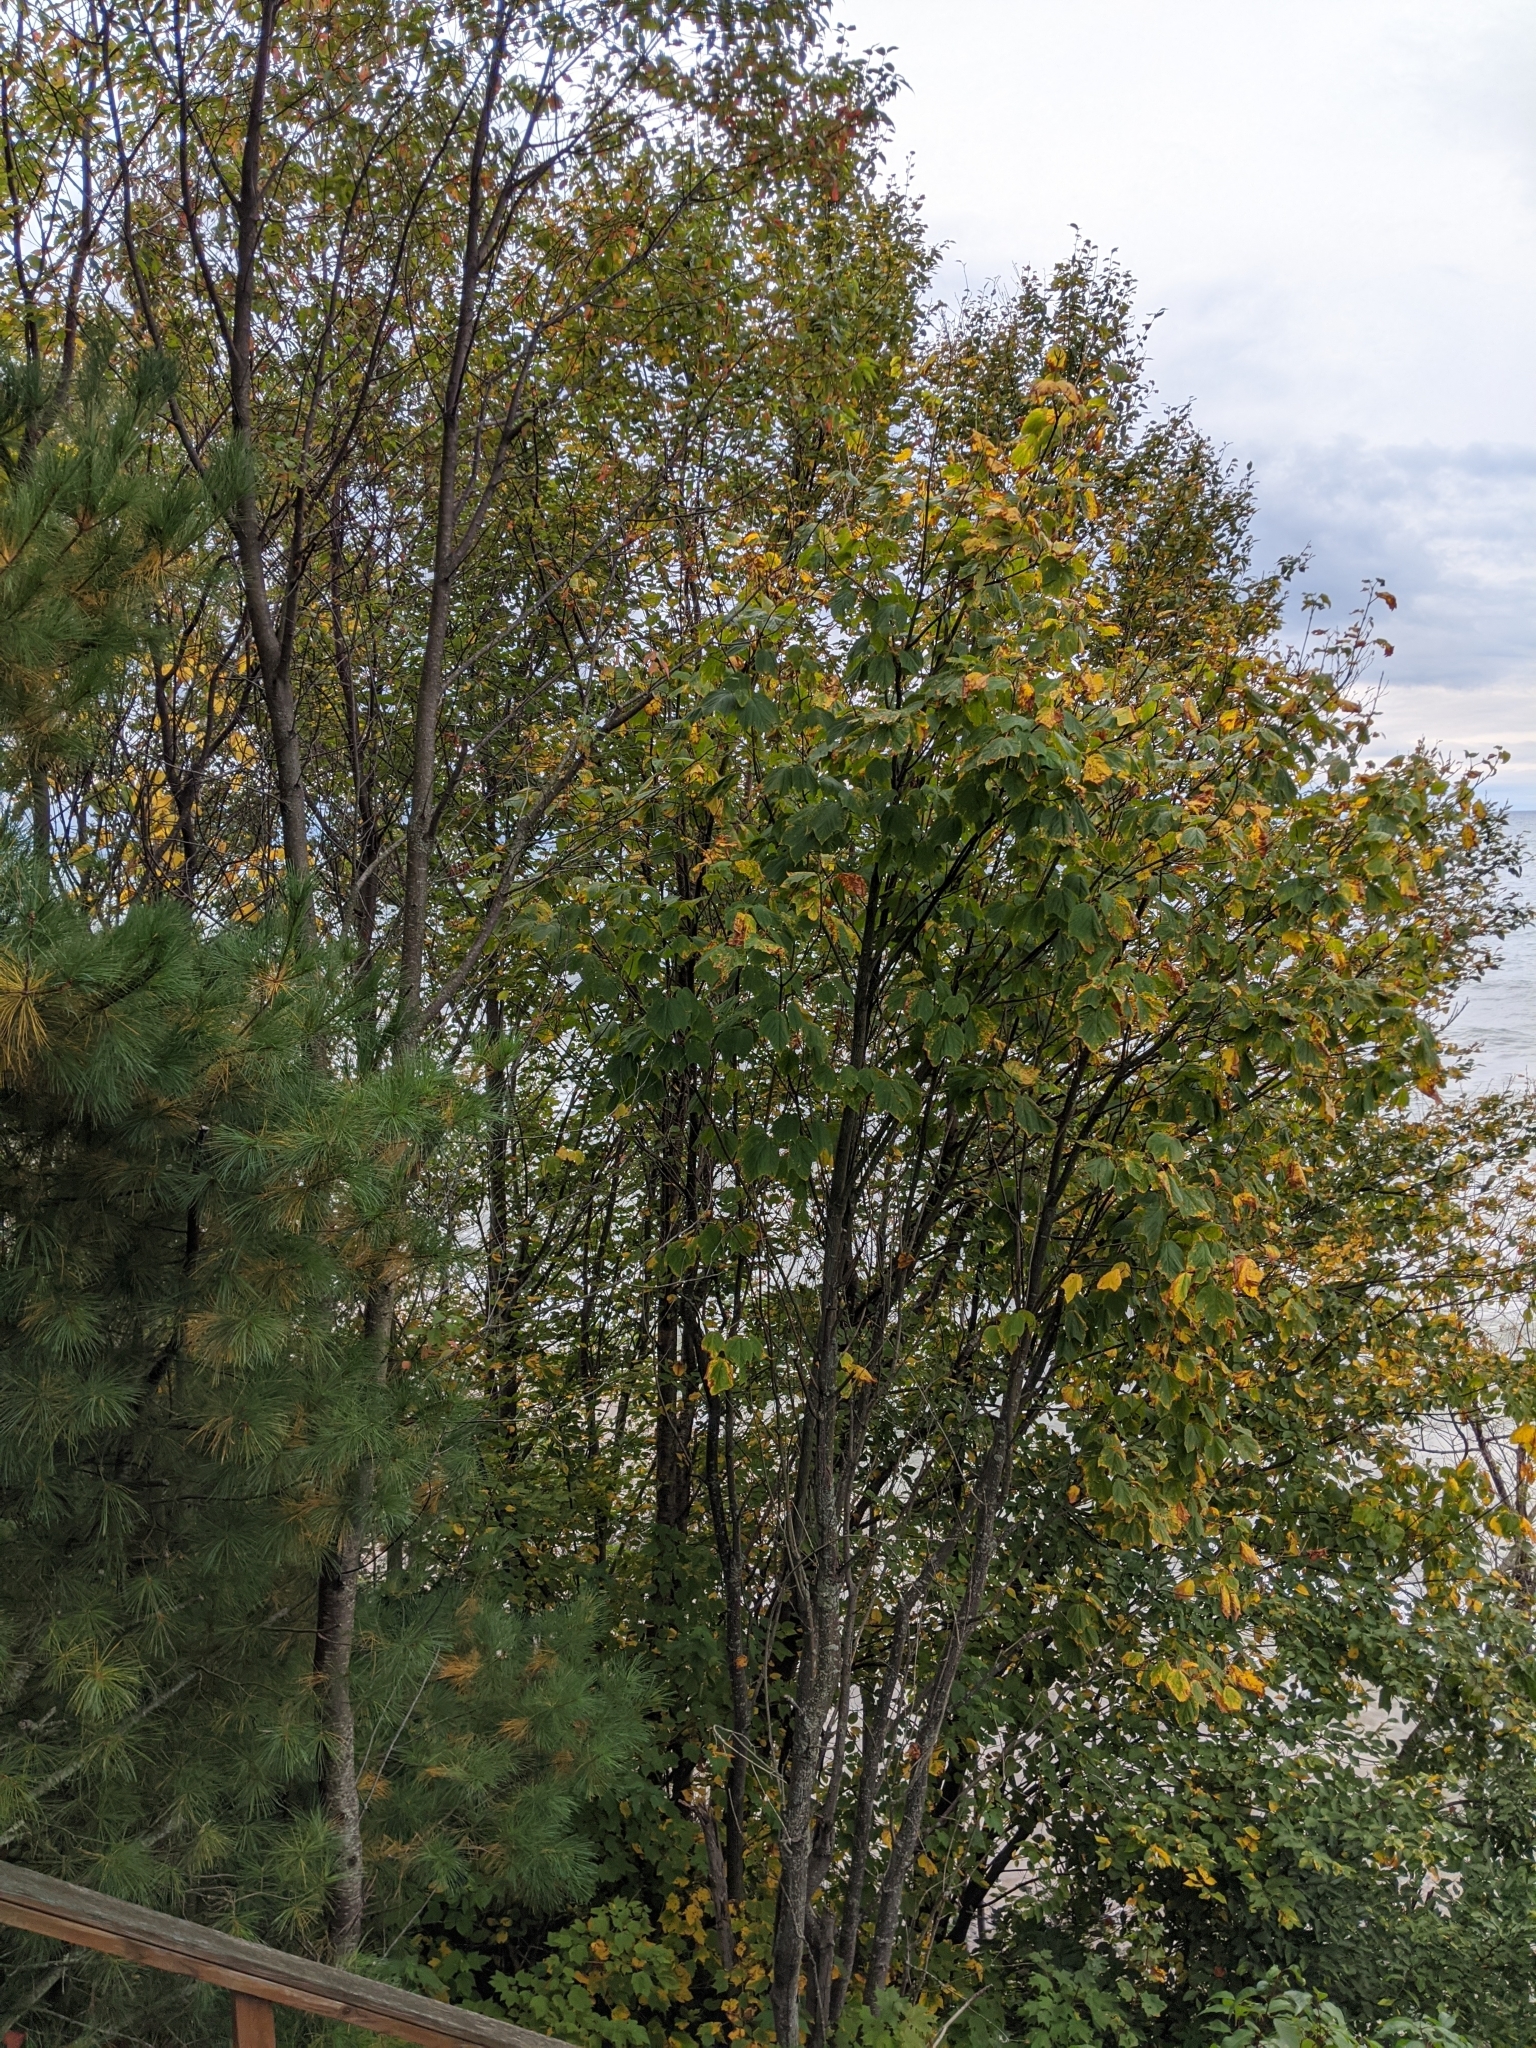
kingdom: Plantae
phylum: Tracheophyta
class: Magnoliopsida
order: Sapindales
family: Sapindaceae
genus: Acer
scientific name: Acer pensylvanicum
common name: Moosewood
